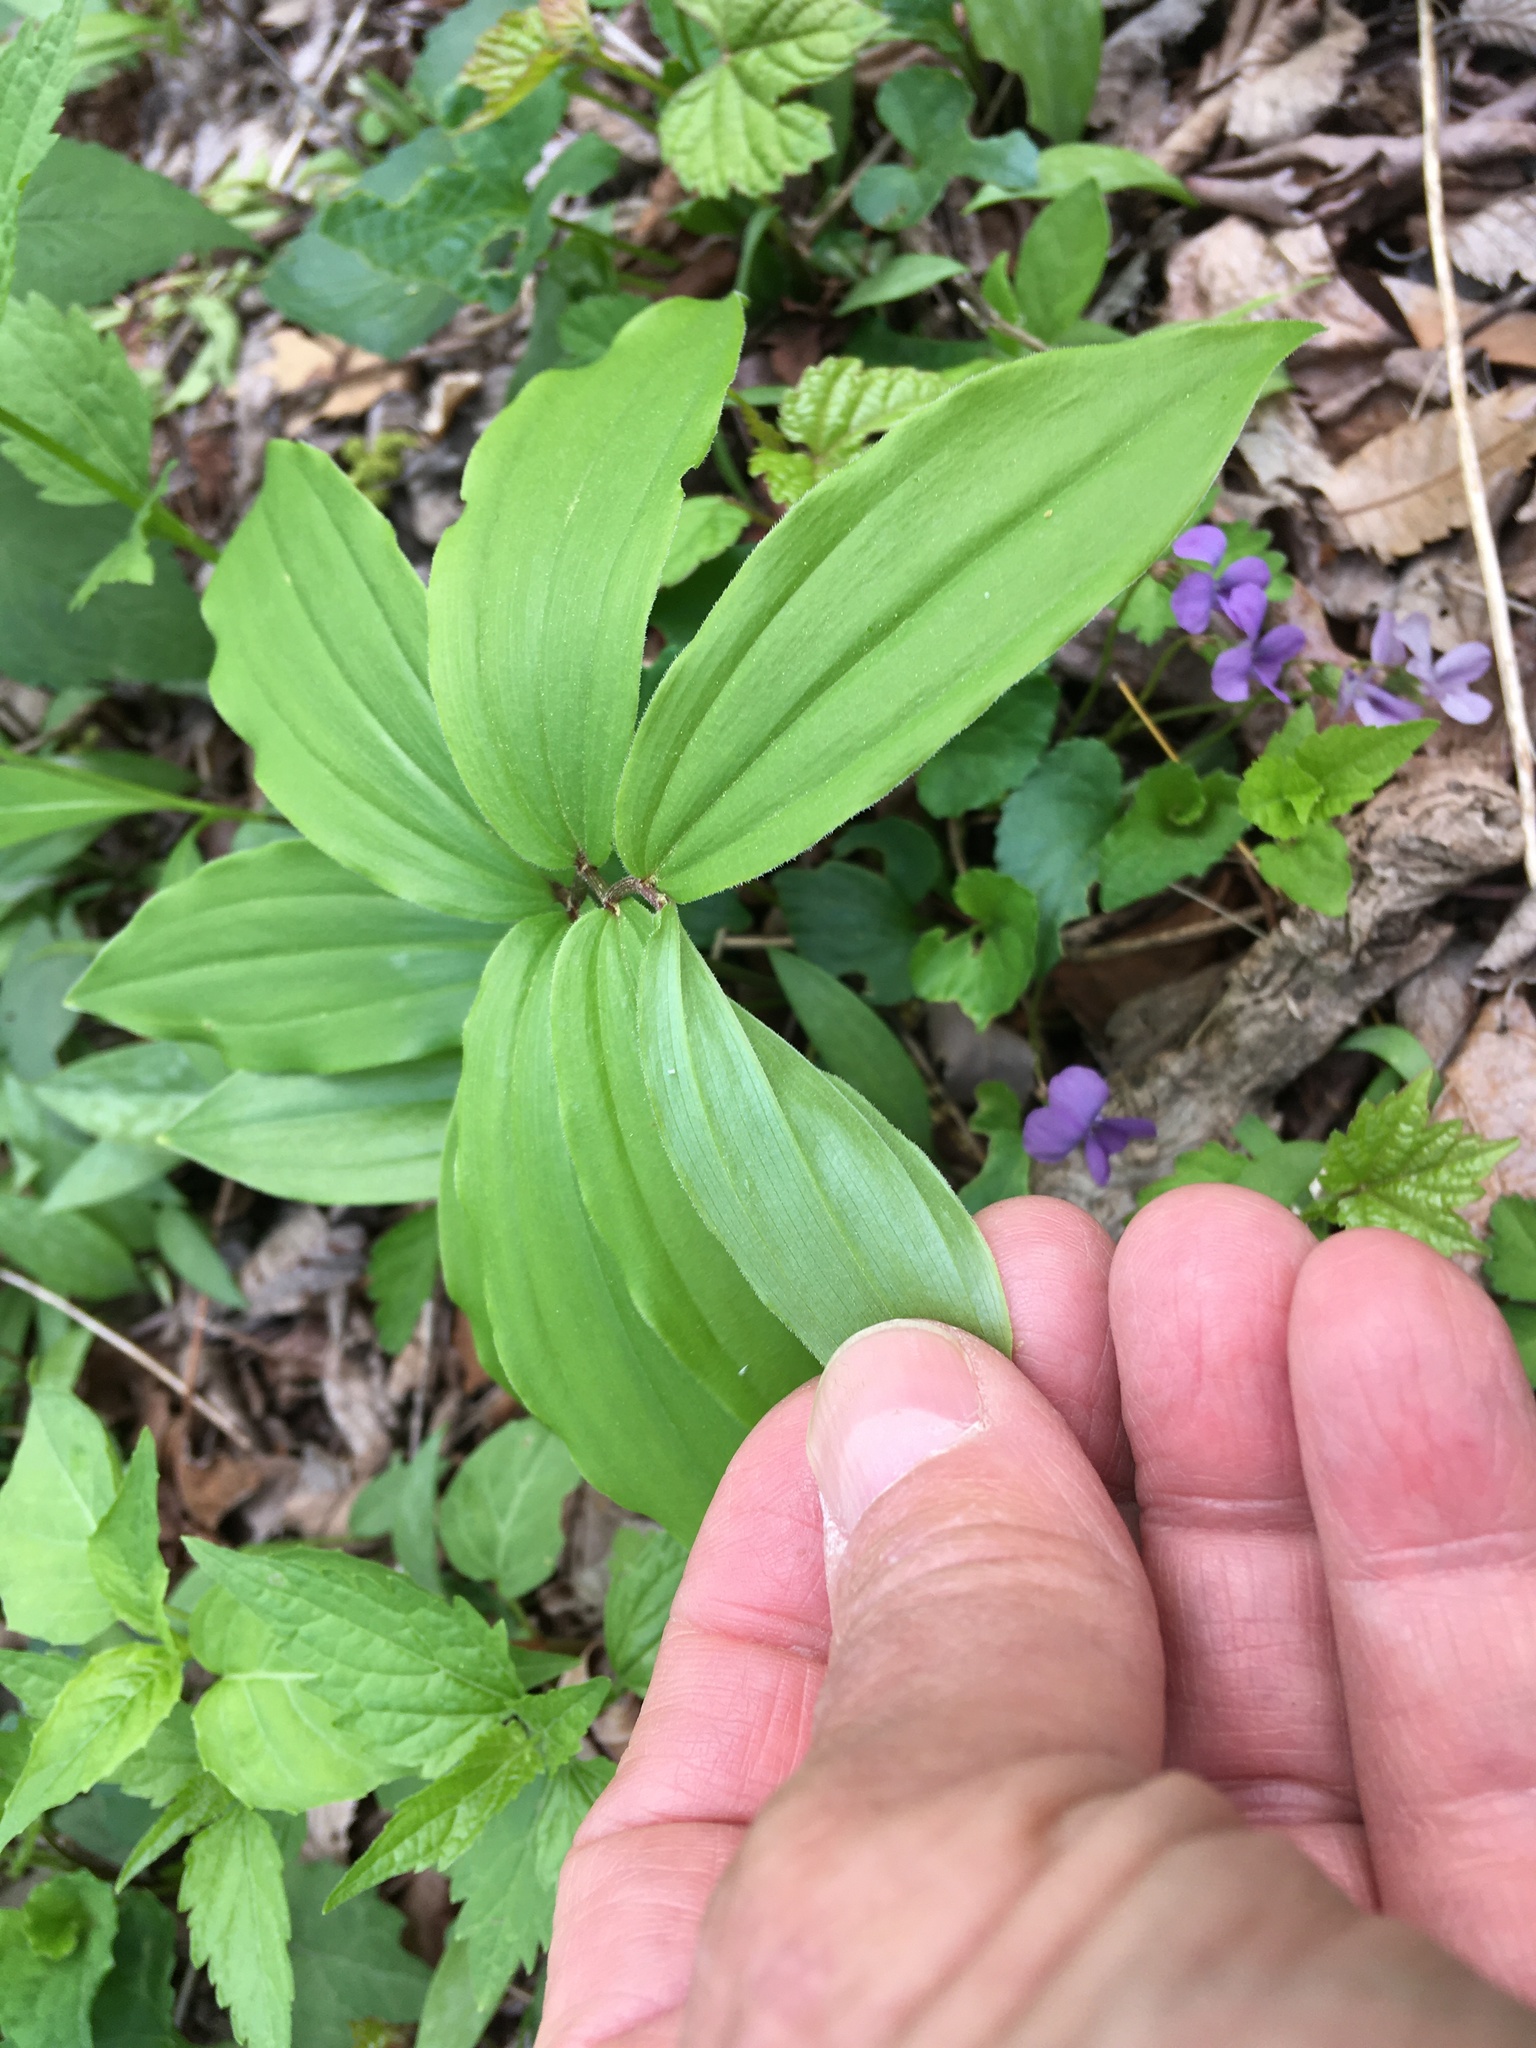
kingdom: Plantae
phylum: Tracheophyta
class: Liliopsida
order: Asparagales
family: Asparagaceae
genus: Maianthemum
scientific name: Maianthemum racemosum
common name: False spikenard
